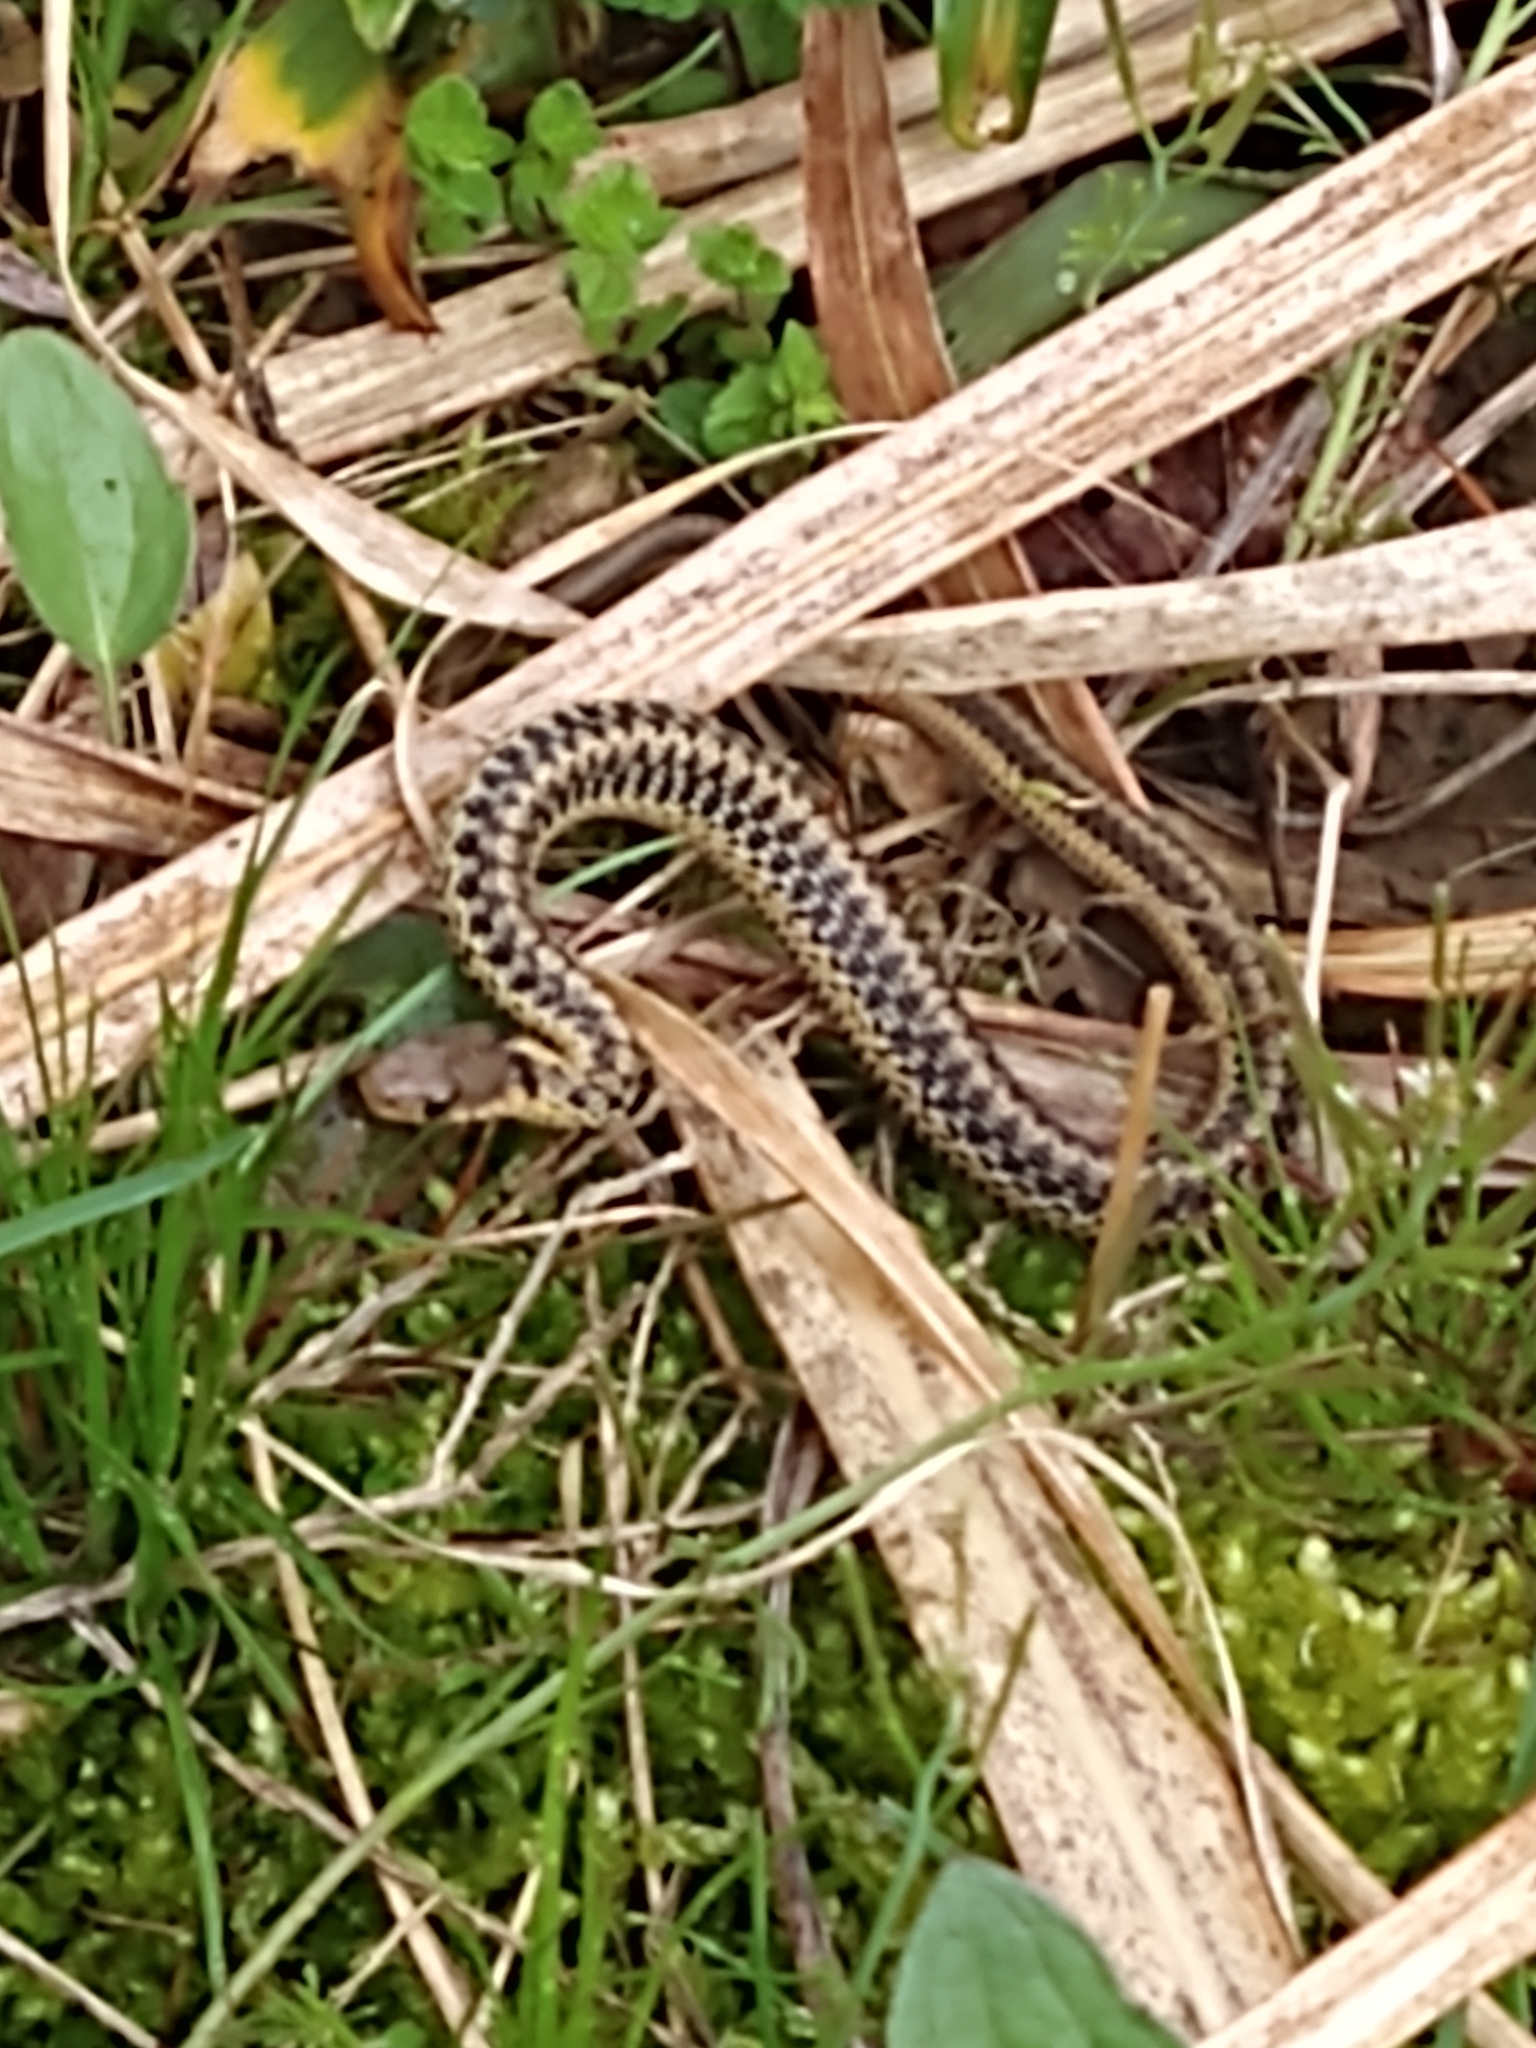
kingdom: Animalia
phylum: Chordata
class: Squamata
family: Colubridae
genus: Thamnophis
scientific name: Thamnophis sirtalis
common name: Common garter snake
